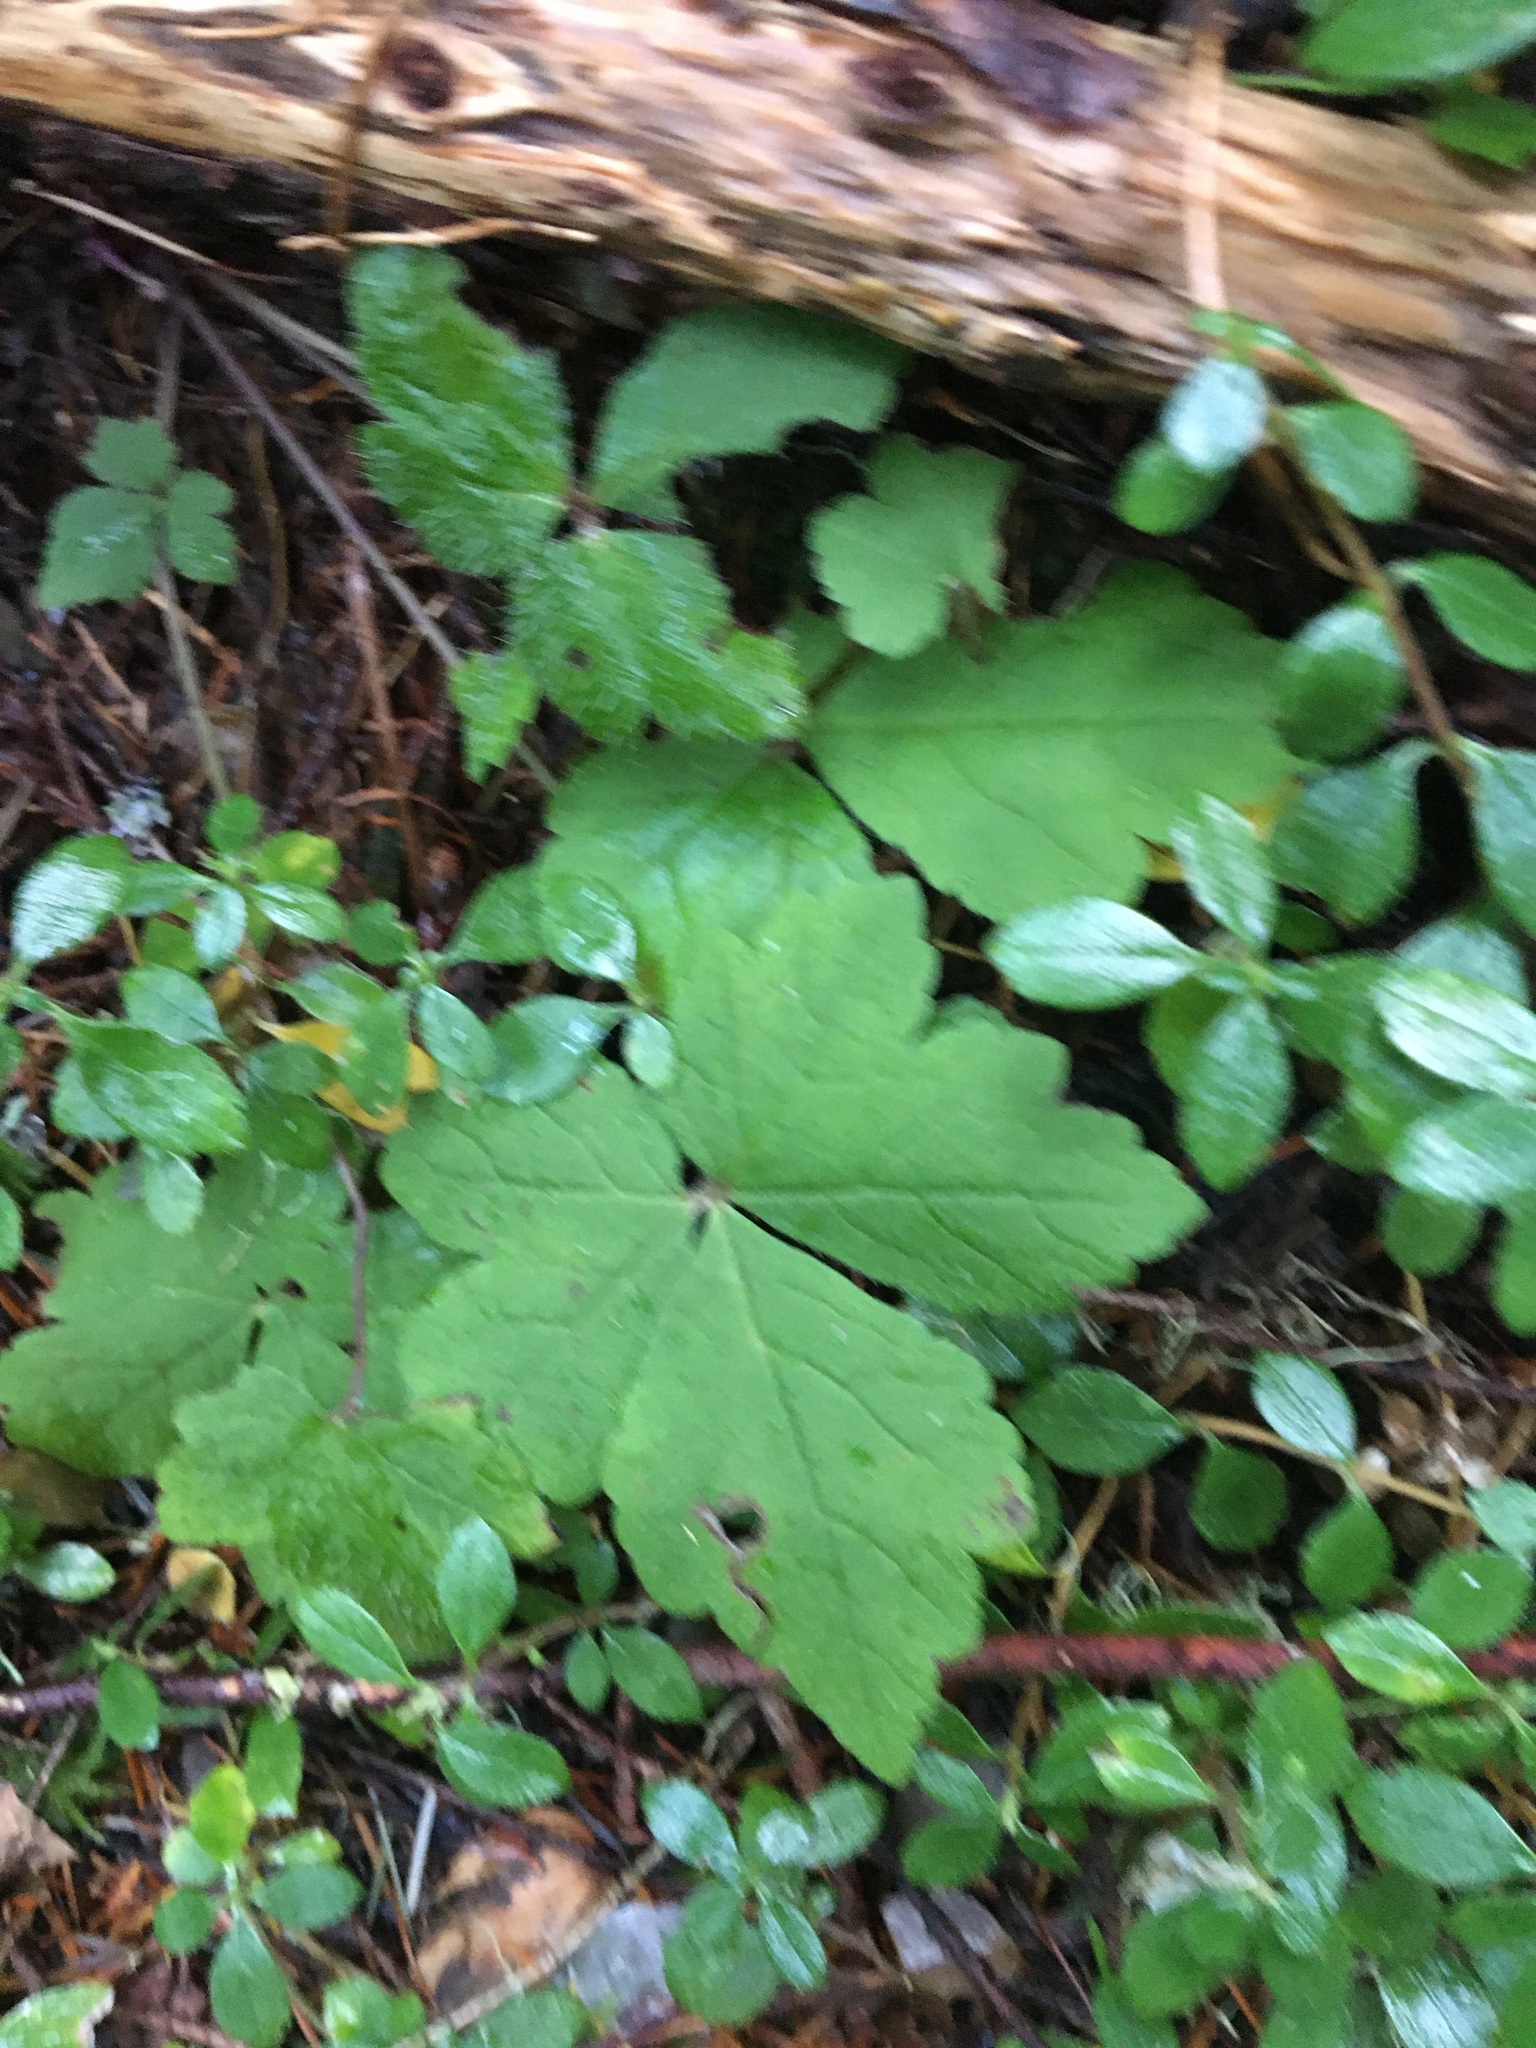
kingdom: Plantae
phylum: Tracheophyta
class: Magnoliopsida
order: Saxifragales
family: Saxifragaceae
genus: Tiarella
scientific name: Tiarella trifoliata
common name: Sugar-scoop
